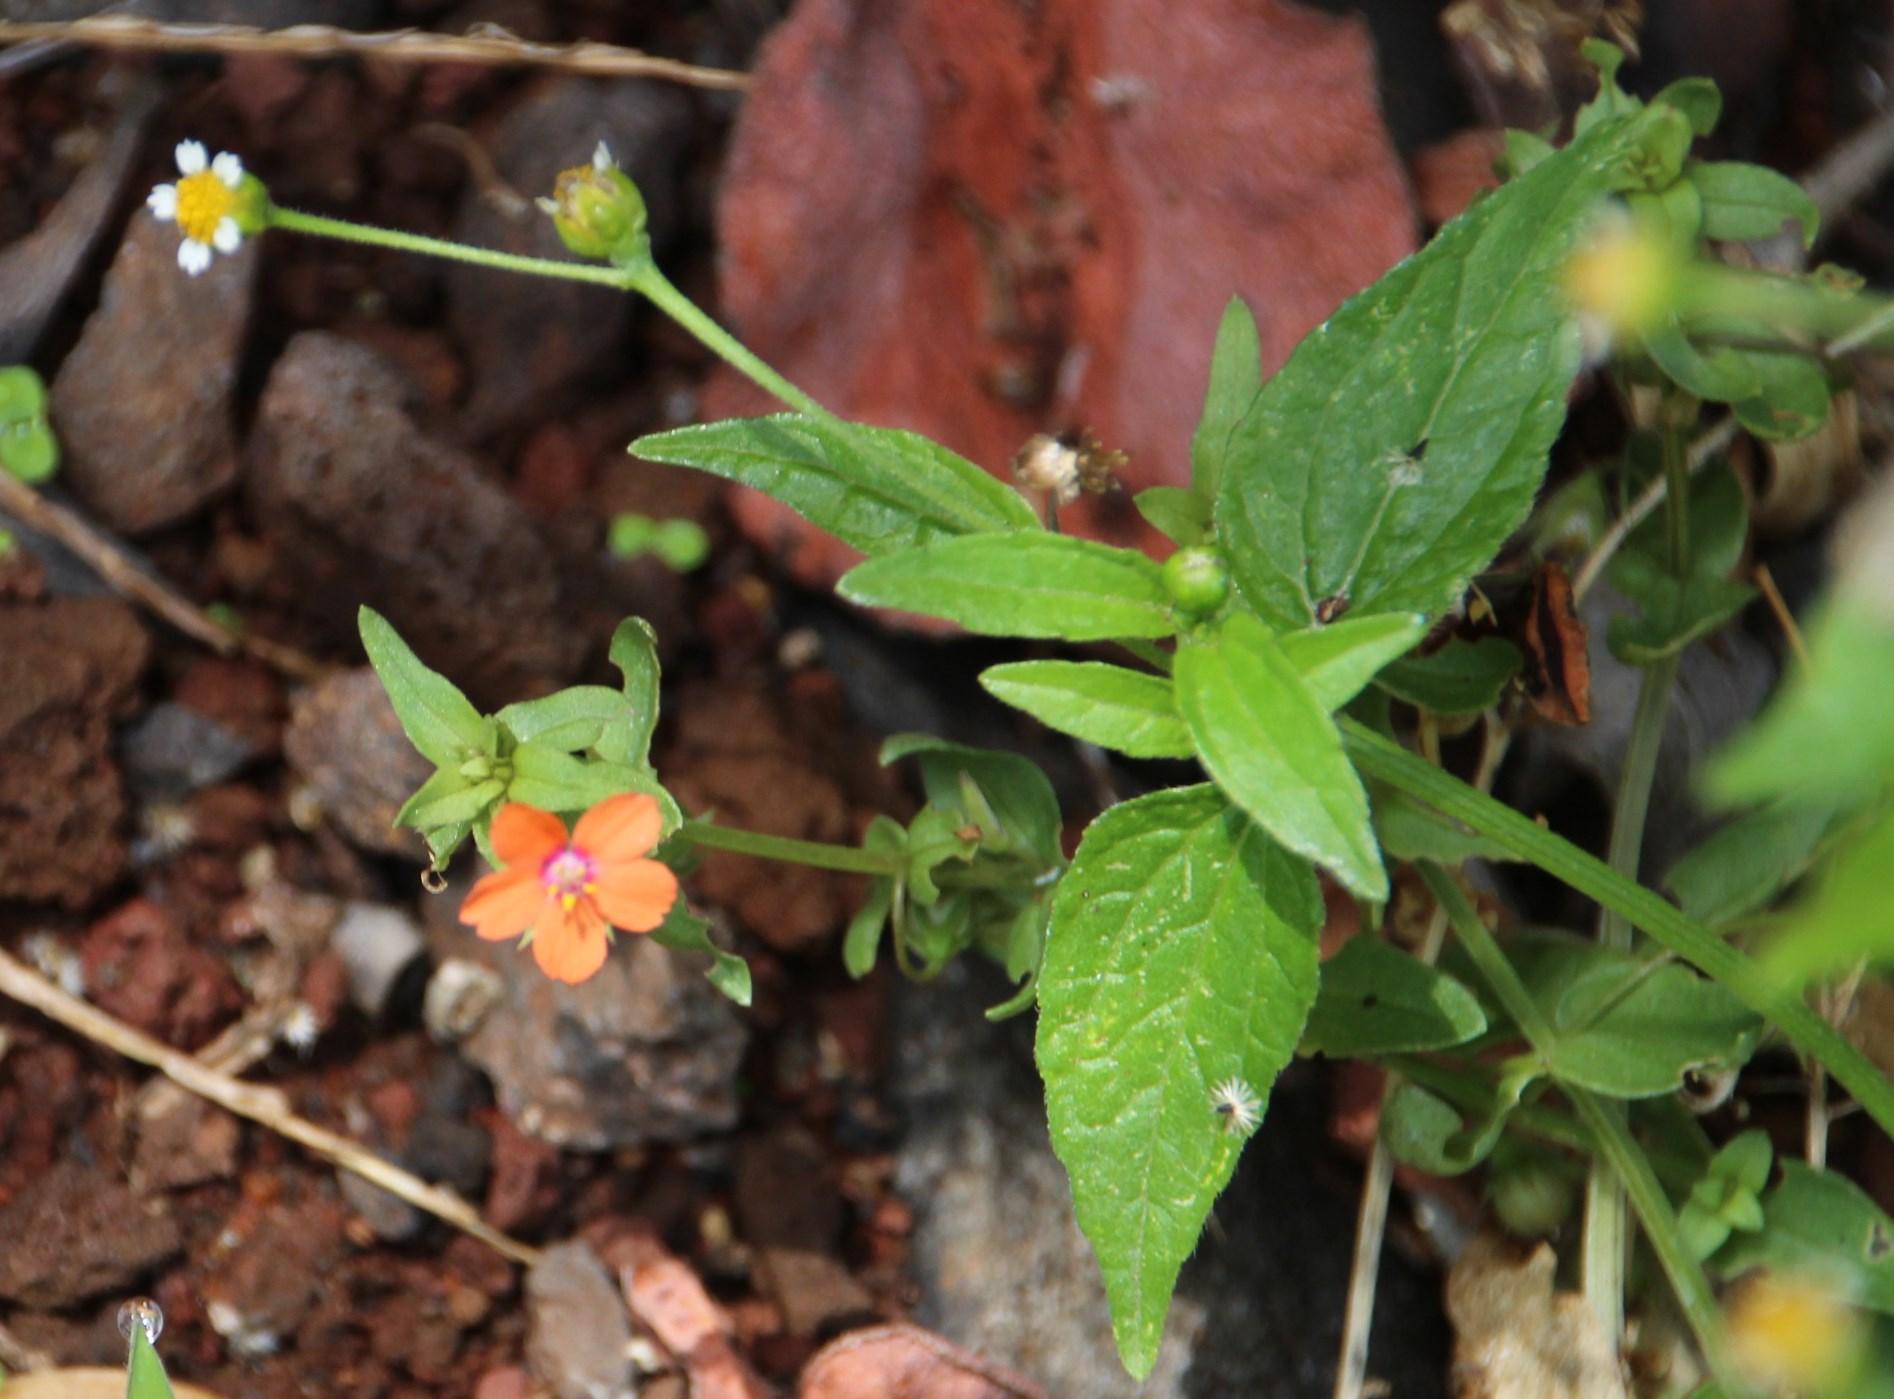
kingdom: Plantae
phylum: Tracheophyta
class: Magnoliopsida
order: Ericales
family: Primulaceae
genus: Lysimachia
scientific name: Lysimachia arvensis
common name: Scarlet pimpernel
